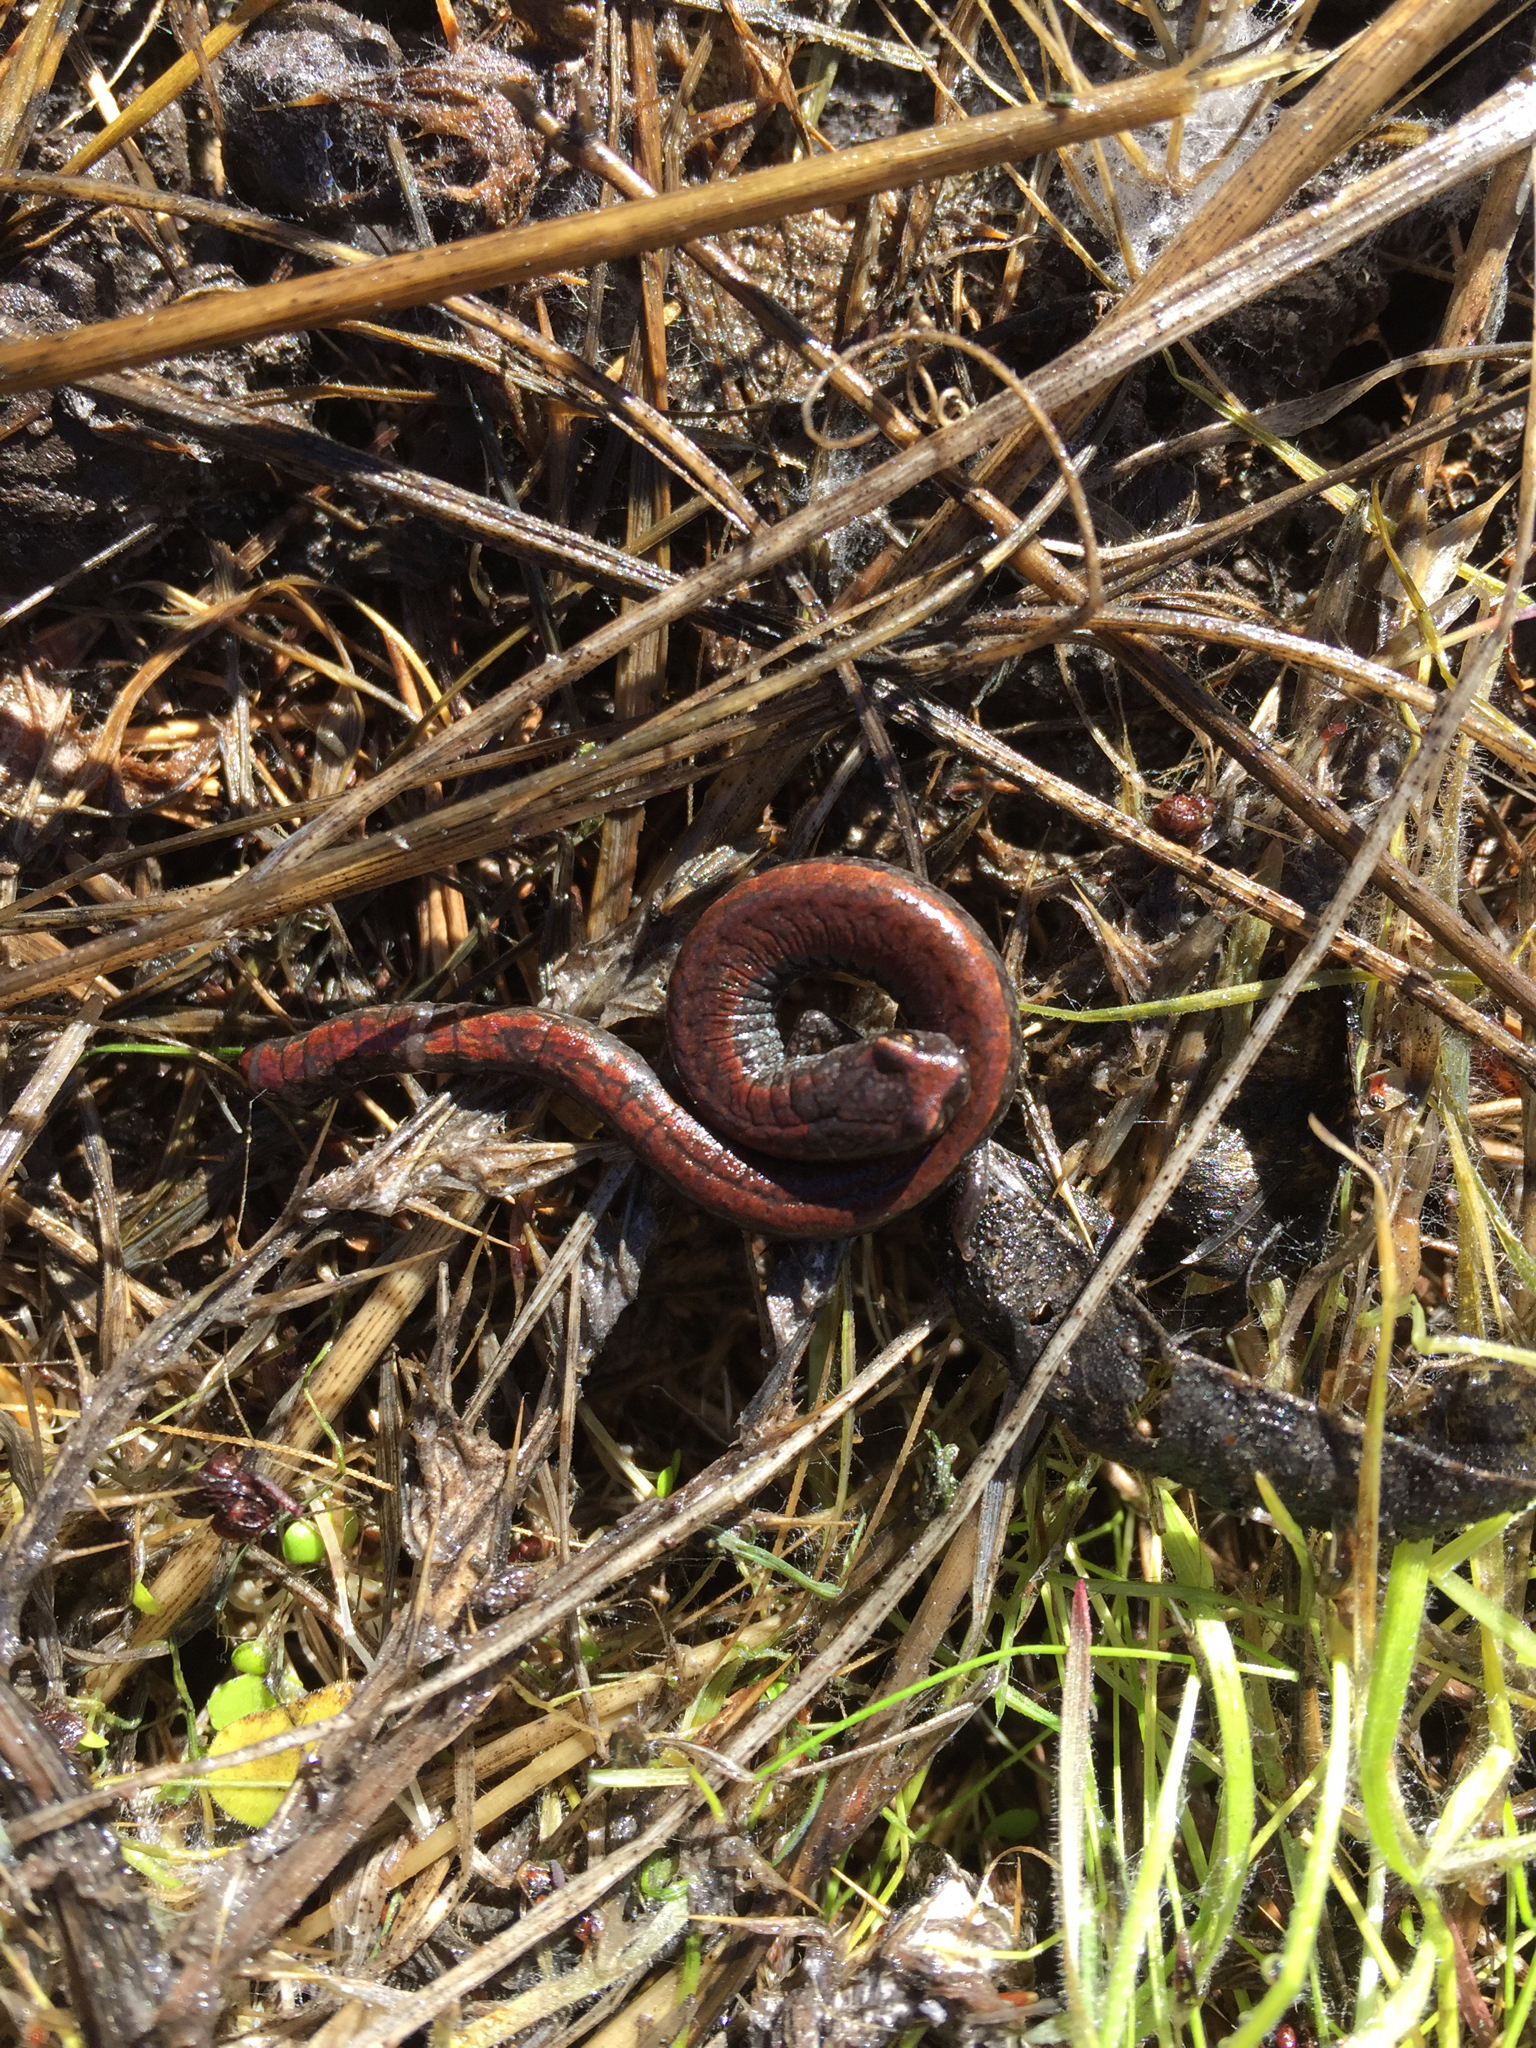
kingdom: Animalia
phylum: Chordata
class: Amphibia
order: Caudata
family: Plethodontidae
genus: Batrachoseps
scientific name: Batrachoseps attenuatus
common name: California slender salamander
